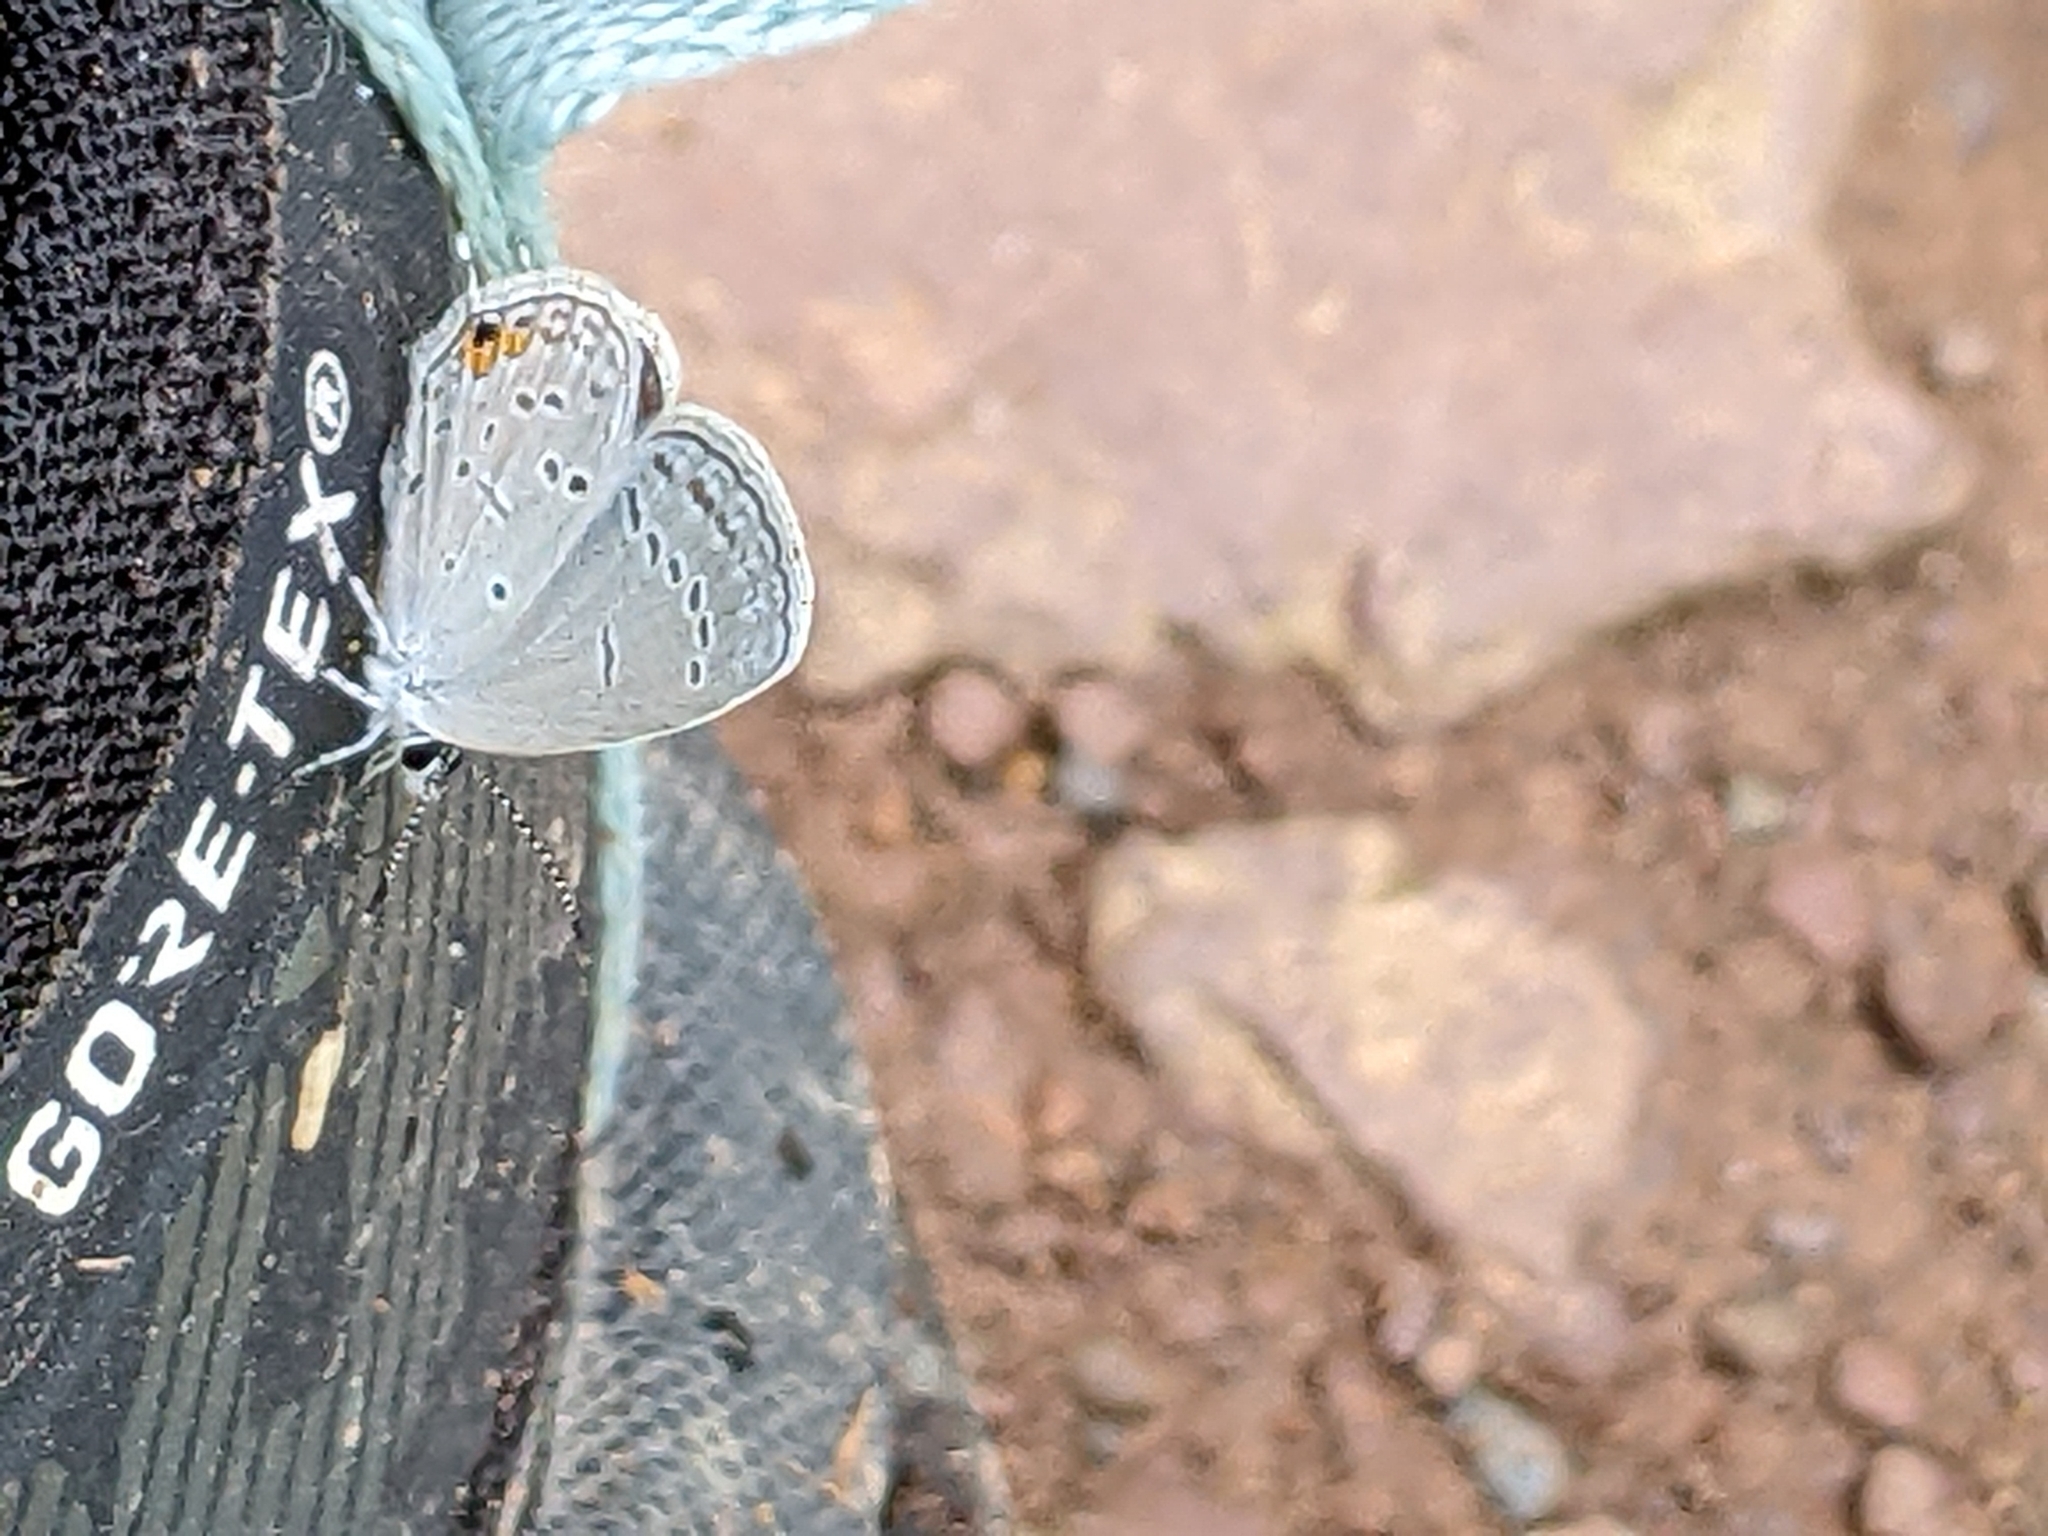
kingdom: Animalia
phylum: Arthropoda
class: Insecta
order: Lepidoptera
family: Lycaenidae
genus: Elkalyce
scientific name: Elkalyce comyntas
